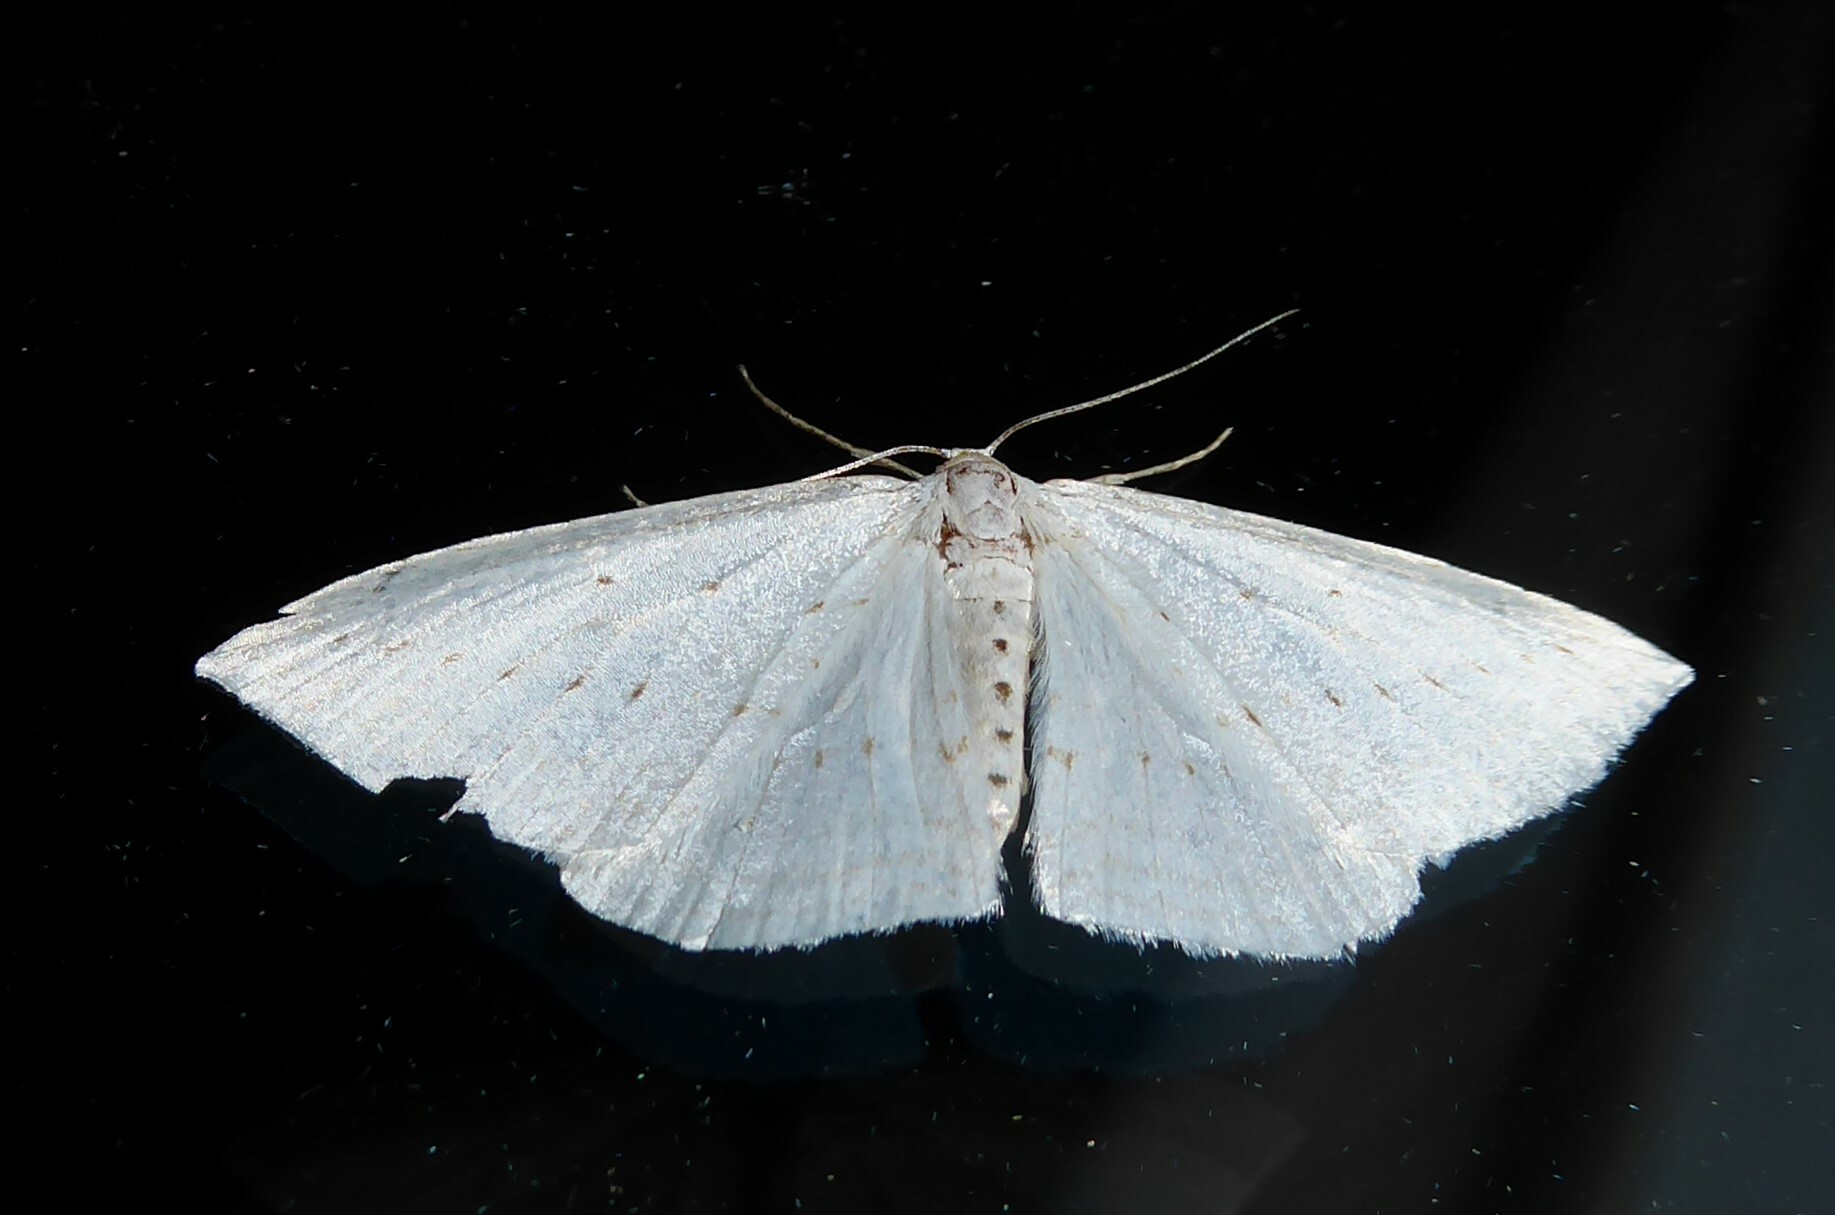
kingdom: Animalia
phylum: Arthropoda
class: Insecta
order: Lepidoptera
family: Geometridae
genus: Orthoclydon
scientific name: Orthoclydon praefectata
